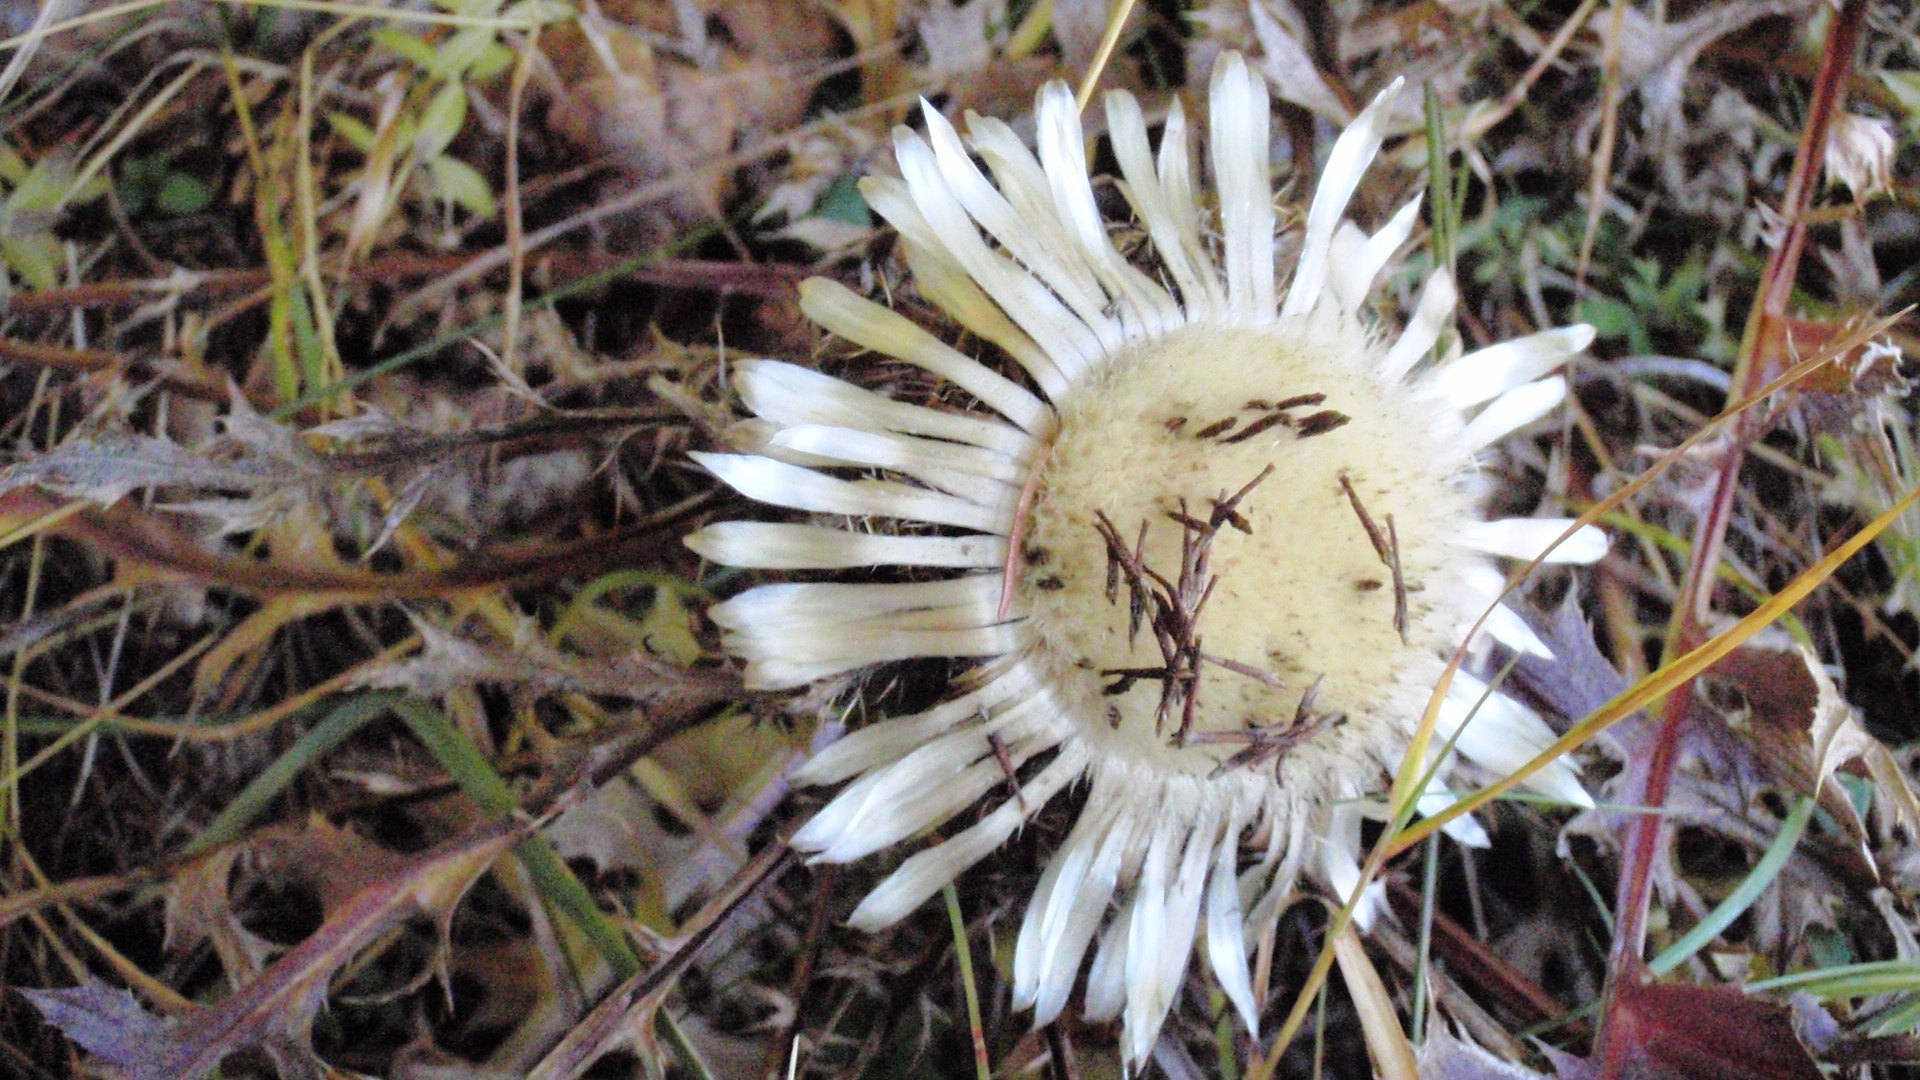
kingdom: Plantae
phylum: Tracheophyta
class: Magnoliopsida
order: Asterales
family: Asteraceae
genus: Carlina
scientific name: Carlina acaulis
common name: Stemless carline thistle
